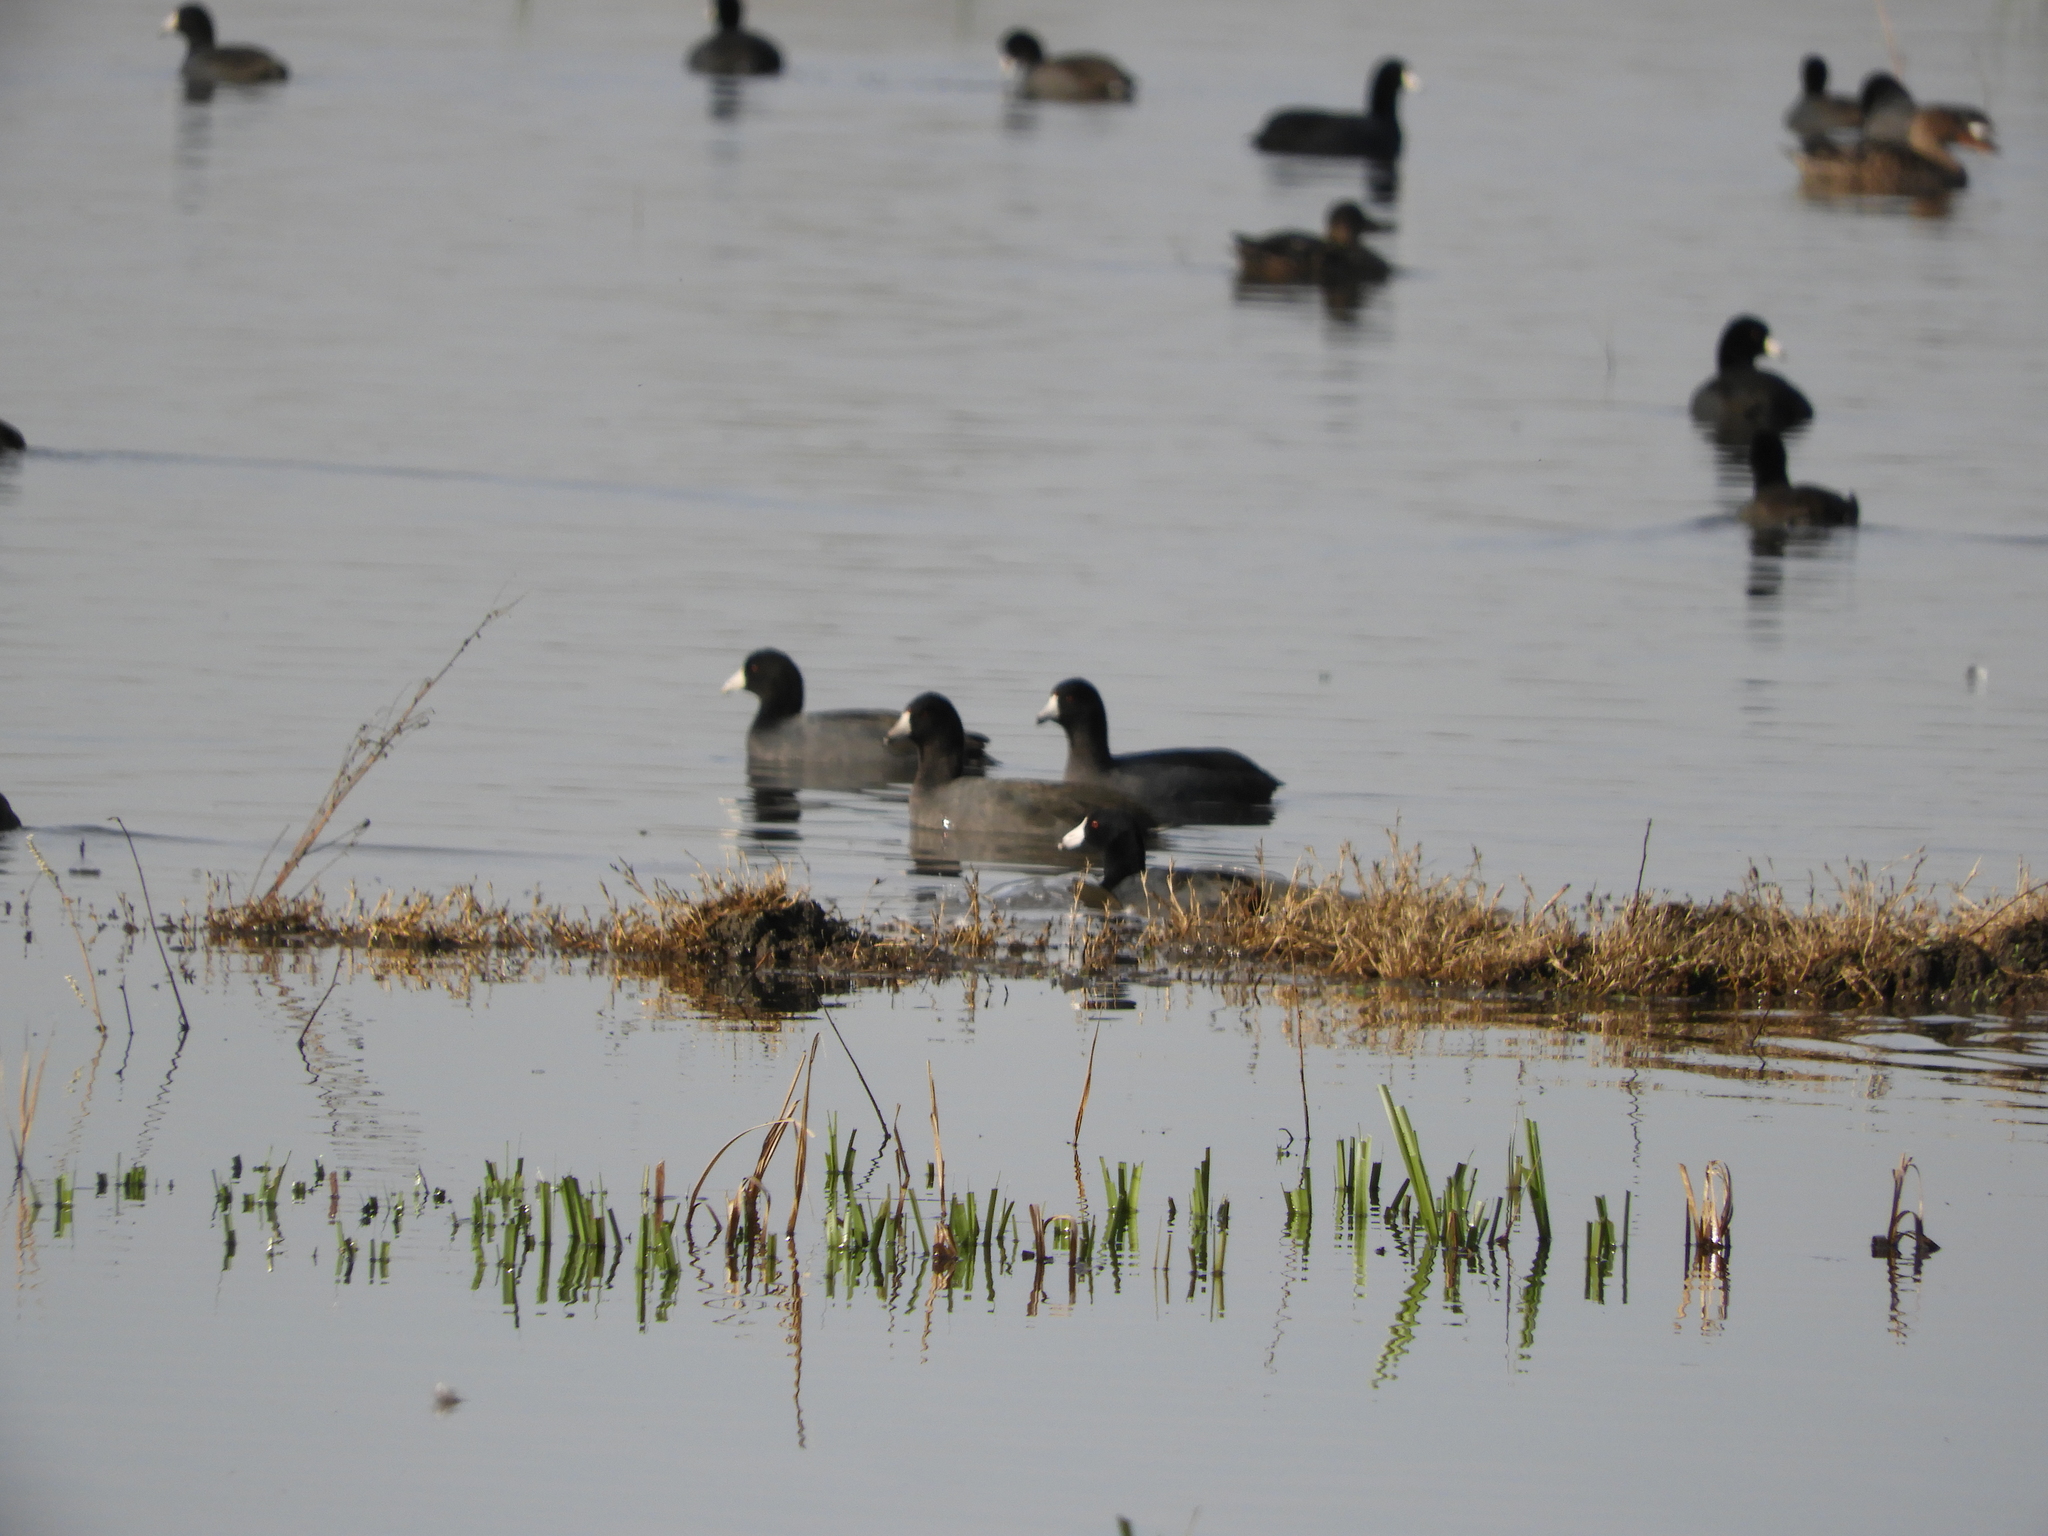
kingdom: Animalia
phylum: Chordata
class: Aves
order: Gruiformes
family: Rallidae
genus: Fulica
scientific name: Fulica americana
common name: American coot
